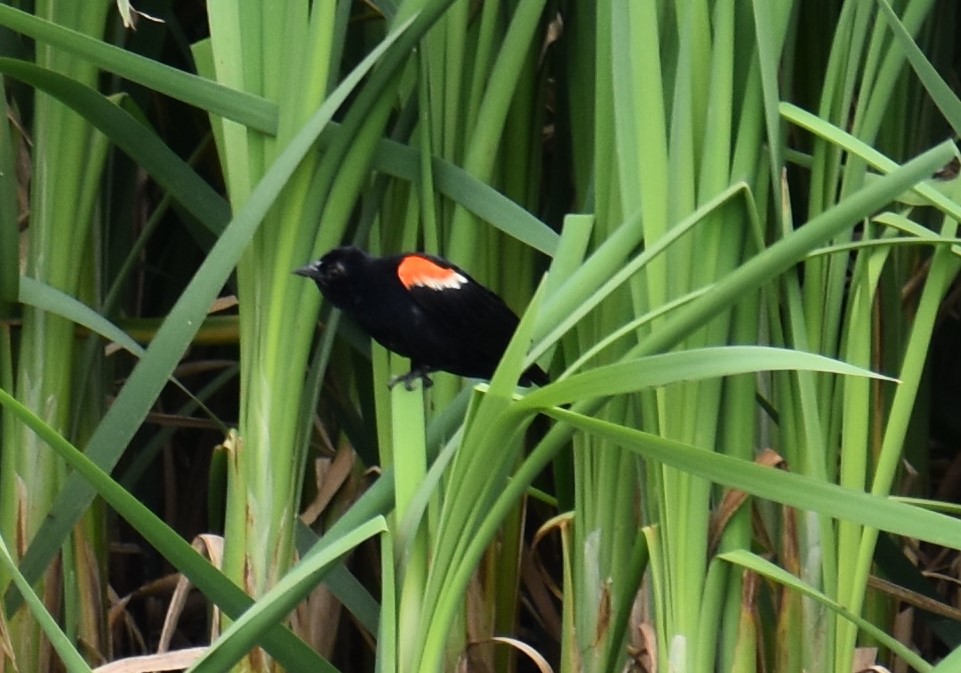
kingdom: Animalia
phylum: Chordata
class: Aves
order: Passeriformes
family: Icteridae
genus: Agelaius
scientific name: Agelaius phoeniceus
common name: Red-winged blackbird
